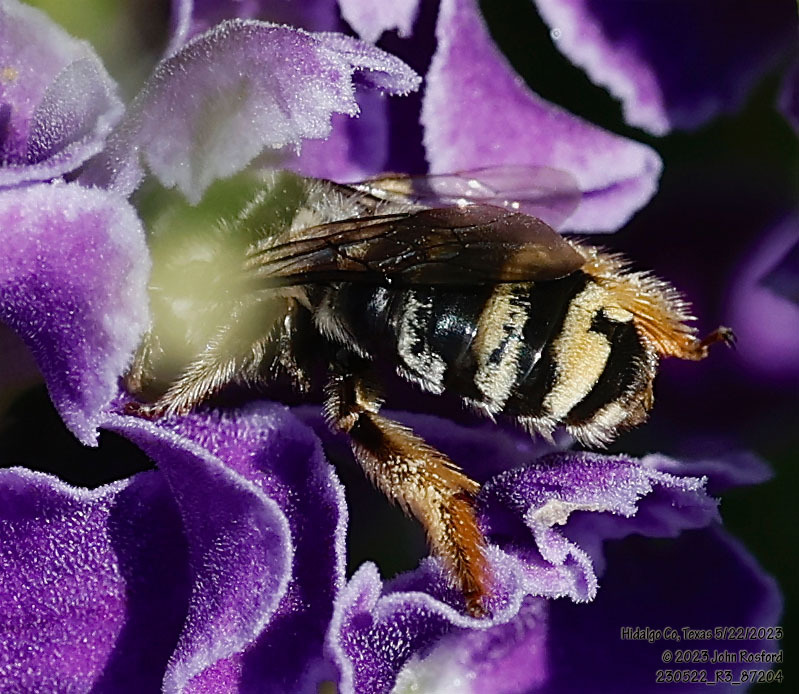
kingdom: Animalia
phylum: Arthropoda
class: Insecta
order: Hymenoptera
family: Apidae
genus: Florilegus
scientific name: Florilegus condignus
